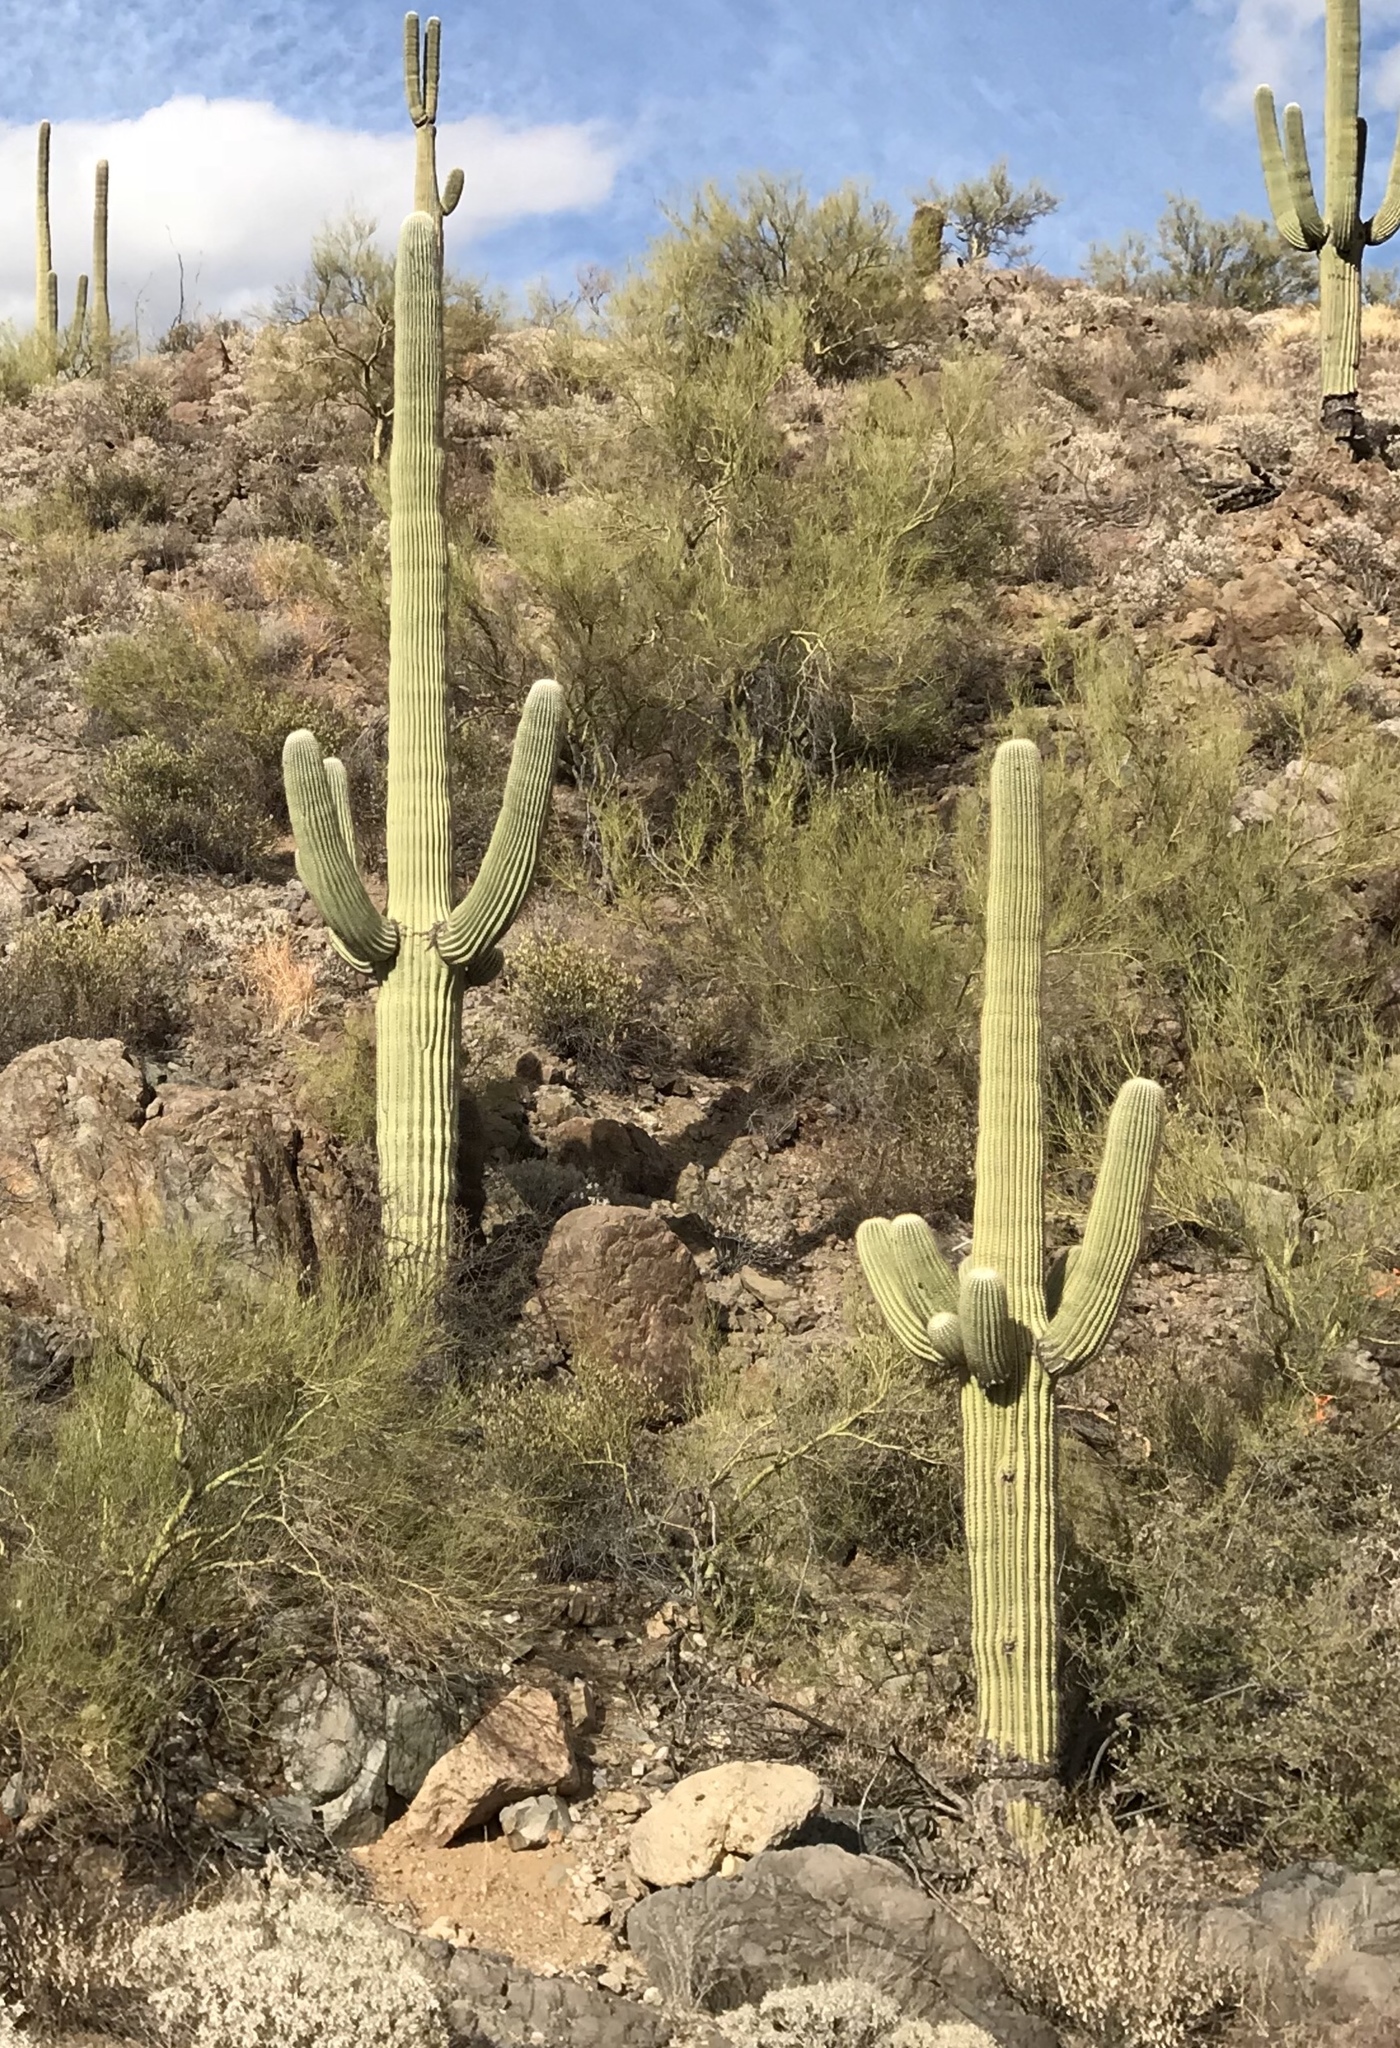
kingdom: Plantae
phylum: Tracheophyta
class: Magnoliopsida
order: Caryophyllales
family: Cactaceae
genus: Carnegiea
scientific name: Carnegiea gigantea
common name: Saguaro
